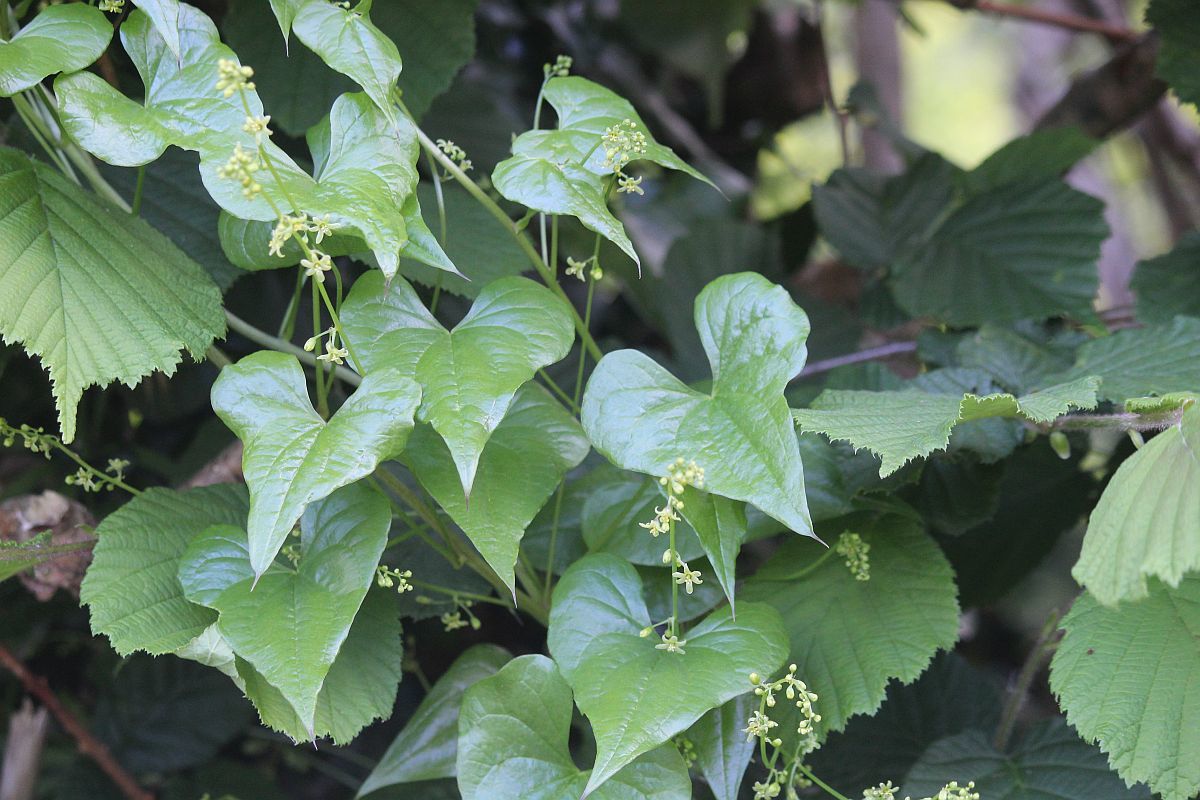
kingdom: Plantae
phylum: Tracheophyta
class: Liliopsida
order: Dioscoreales
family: Dioscoreaceae
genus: Dioscorea
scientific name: Dioscorea communis
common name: Black-bindweed
